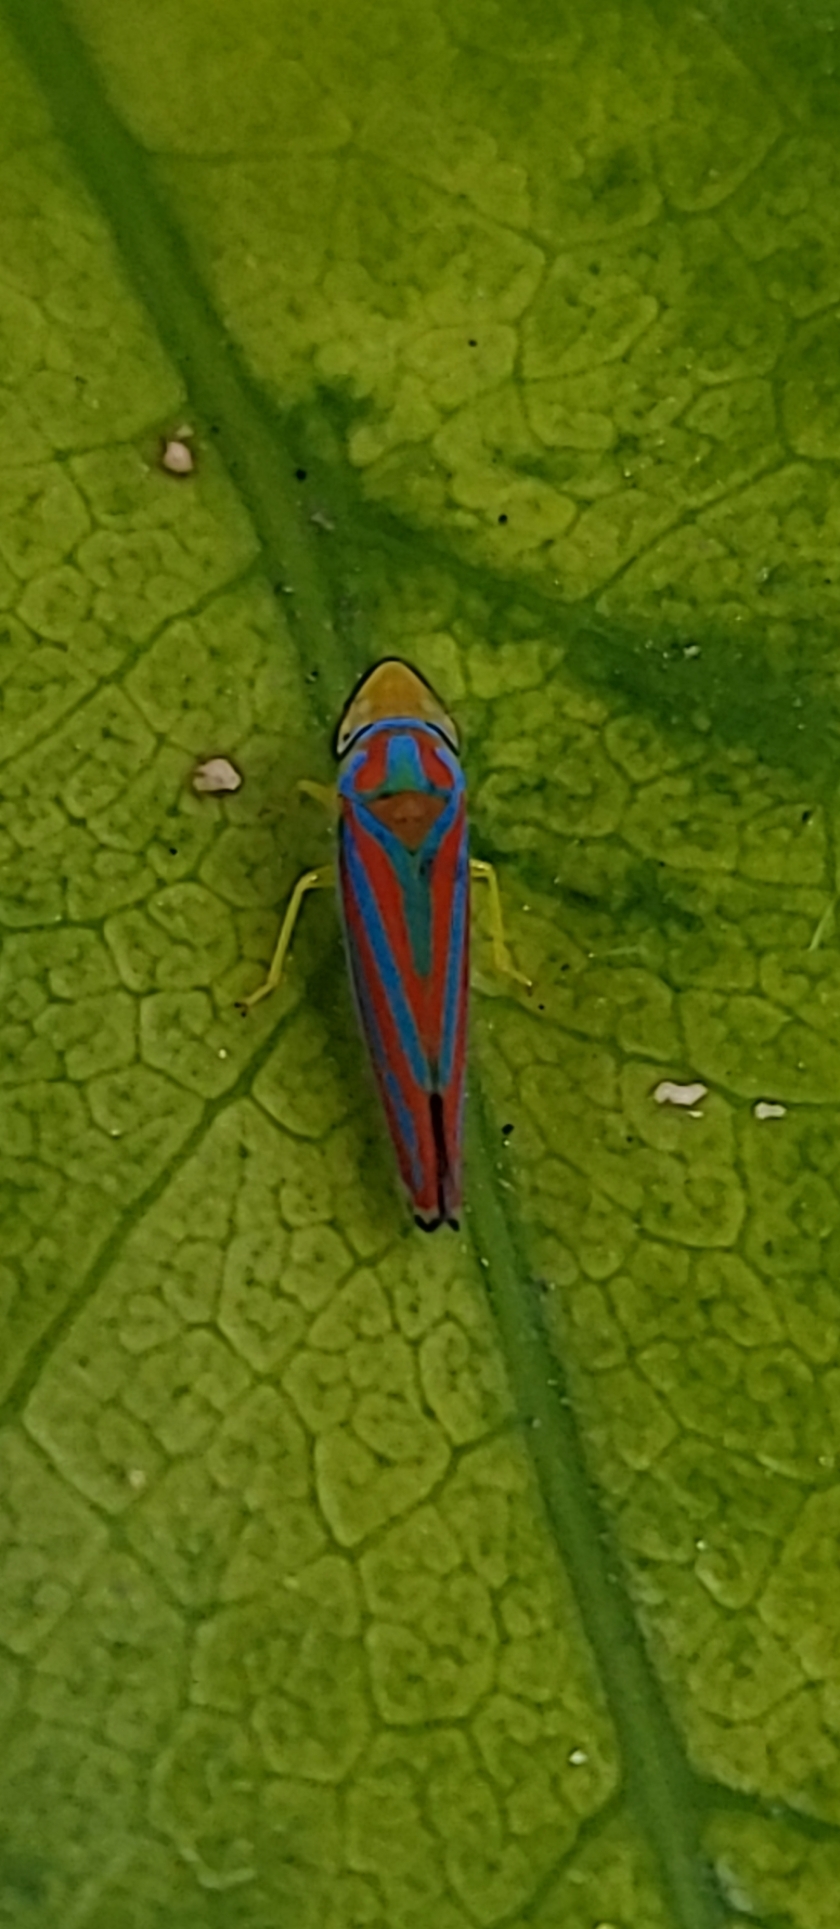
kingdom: Animalia
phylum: Arthropoda
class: Insecta
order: Hemiptera
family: Cicadellidae
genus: Graphocephala
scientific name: Graphocephala coccinea
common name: Candy-striped leafhopper
